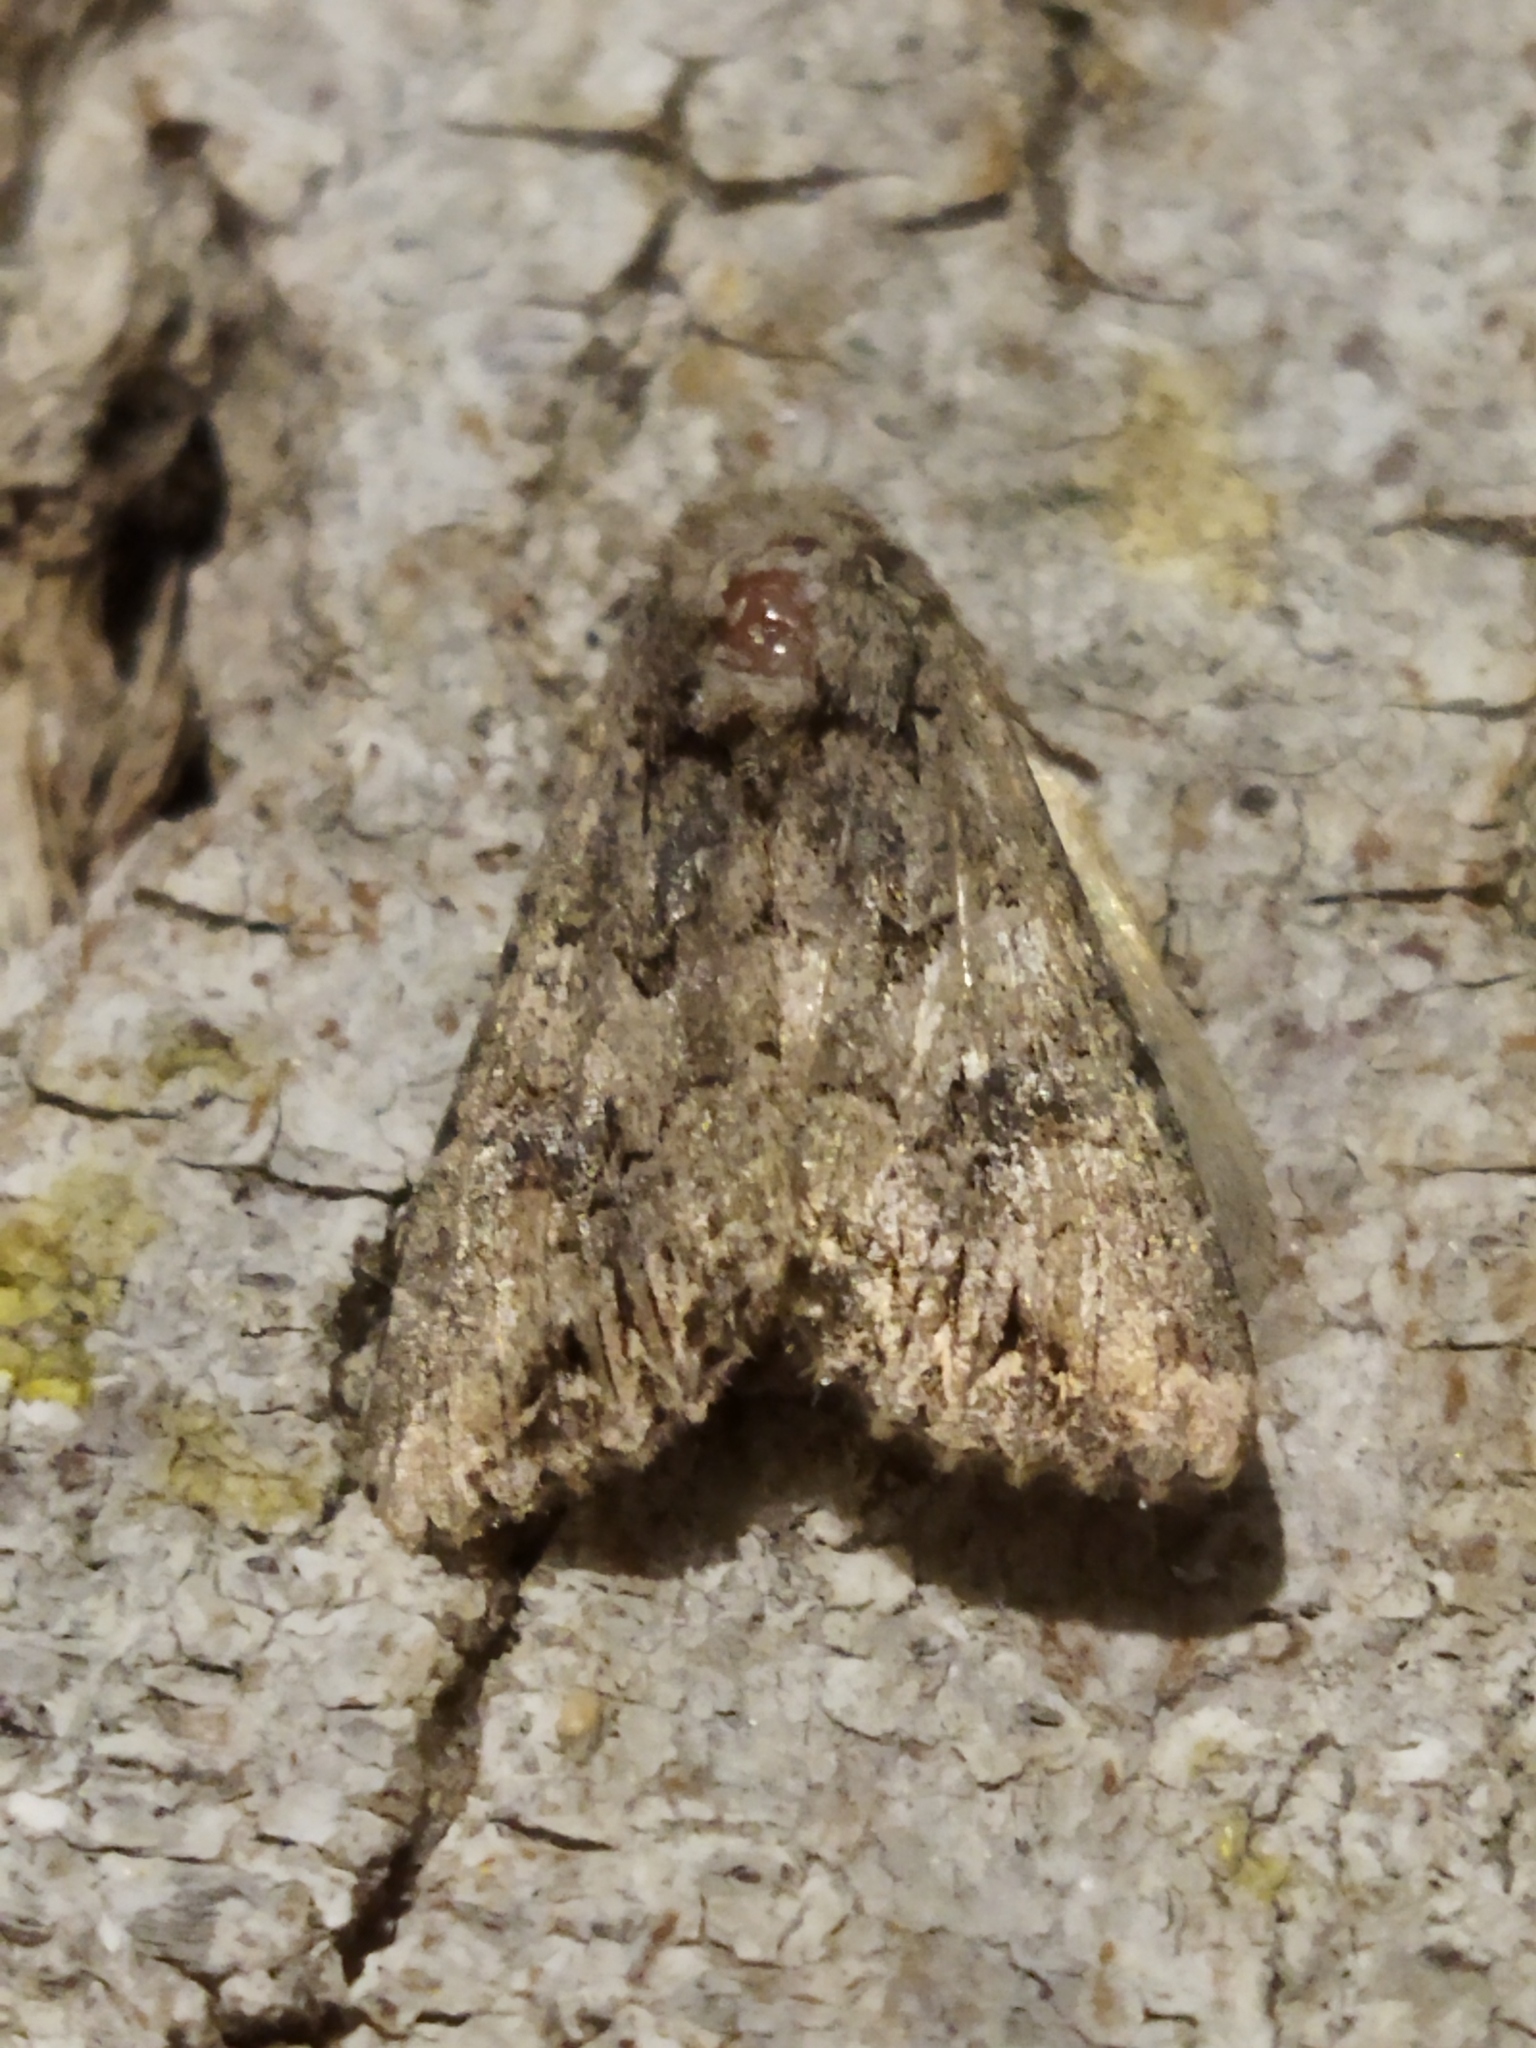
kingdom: Animalia
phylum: Arthropoda
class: Insecta
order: Lepidoptera
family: Noctuidae
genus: Anarta
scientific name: Anarta trifolii
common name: Clover cutworm moth
